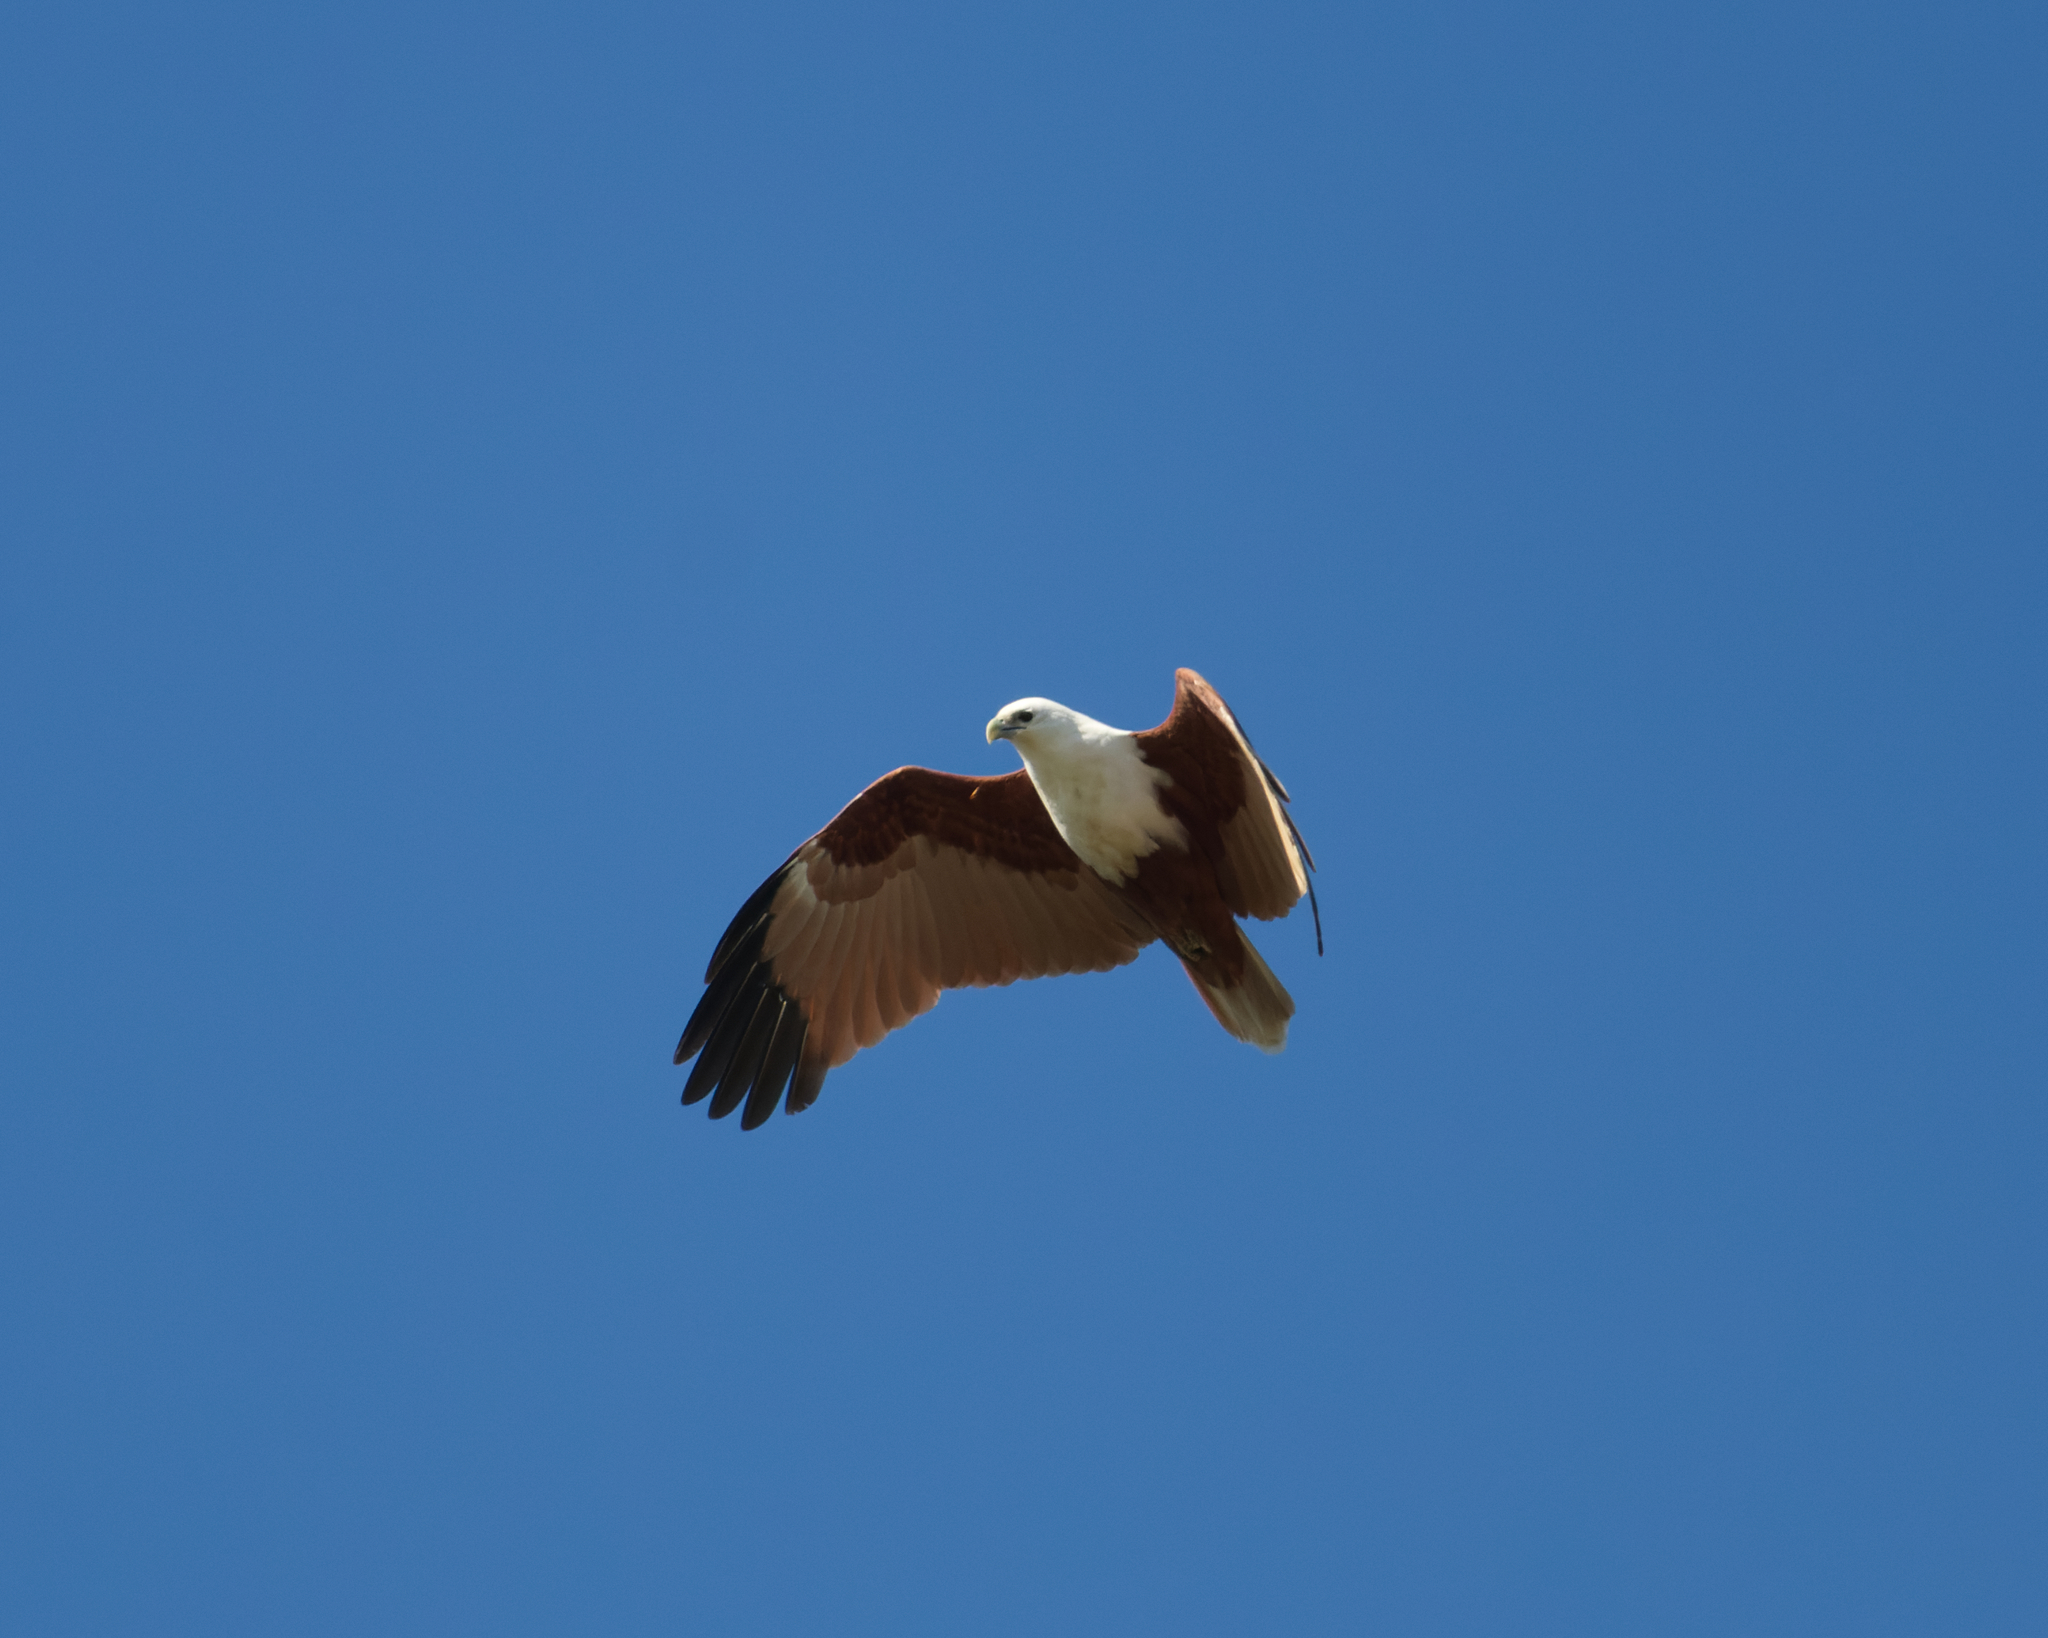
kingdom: Animalia
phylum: Chordata
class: Aves
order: Accipitriformes
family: Accipitridae
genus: Haliastur
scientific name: Haliastur indus
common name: Brahminy kite
